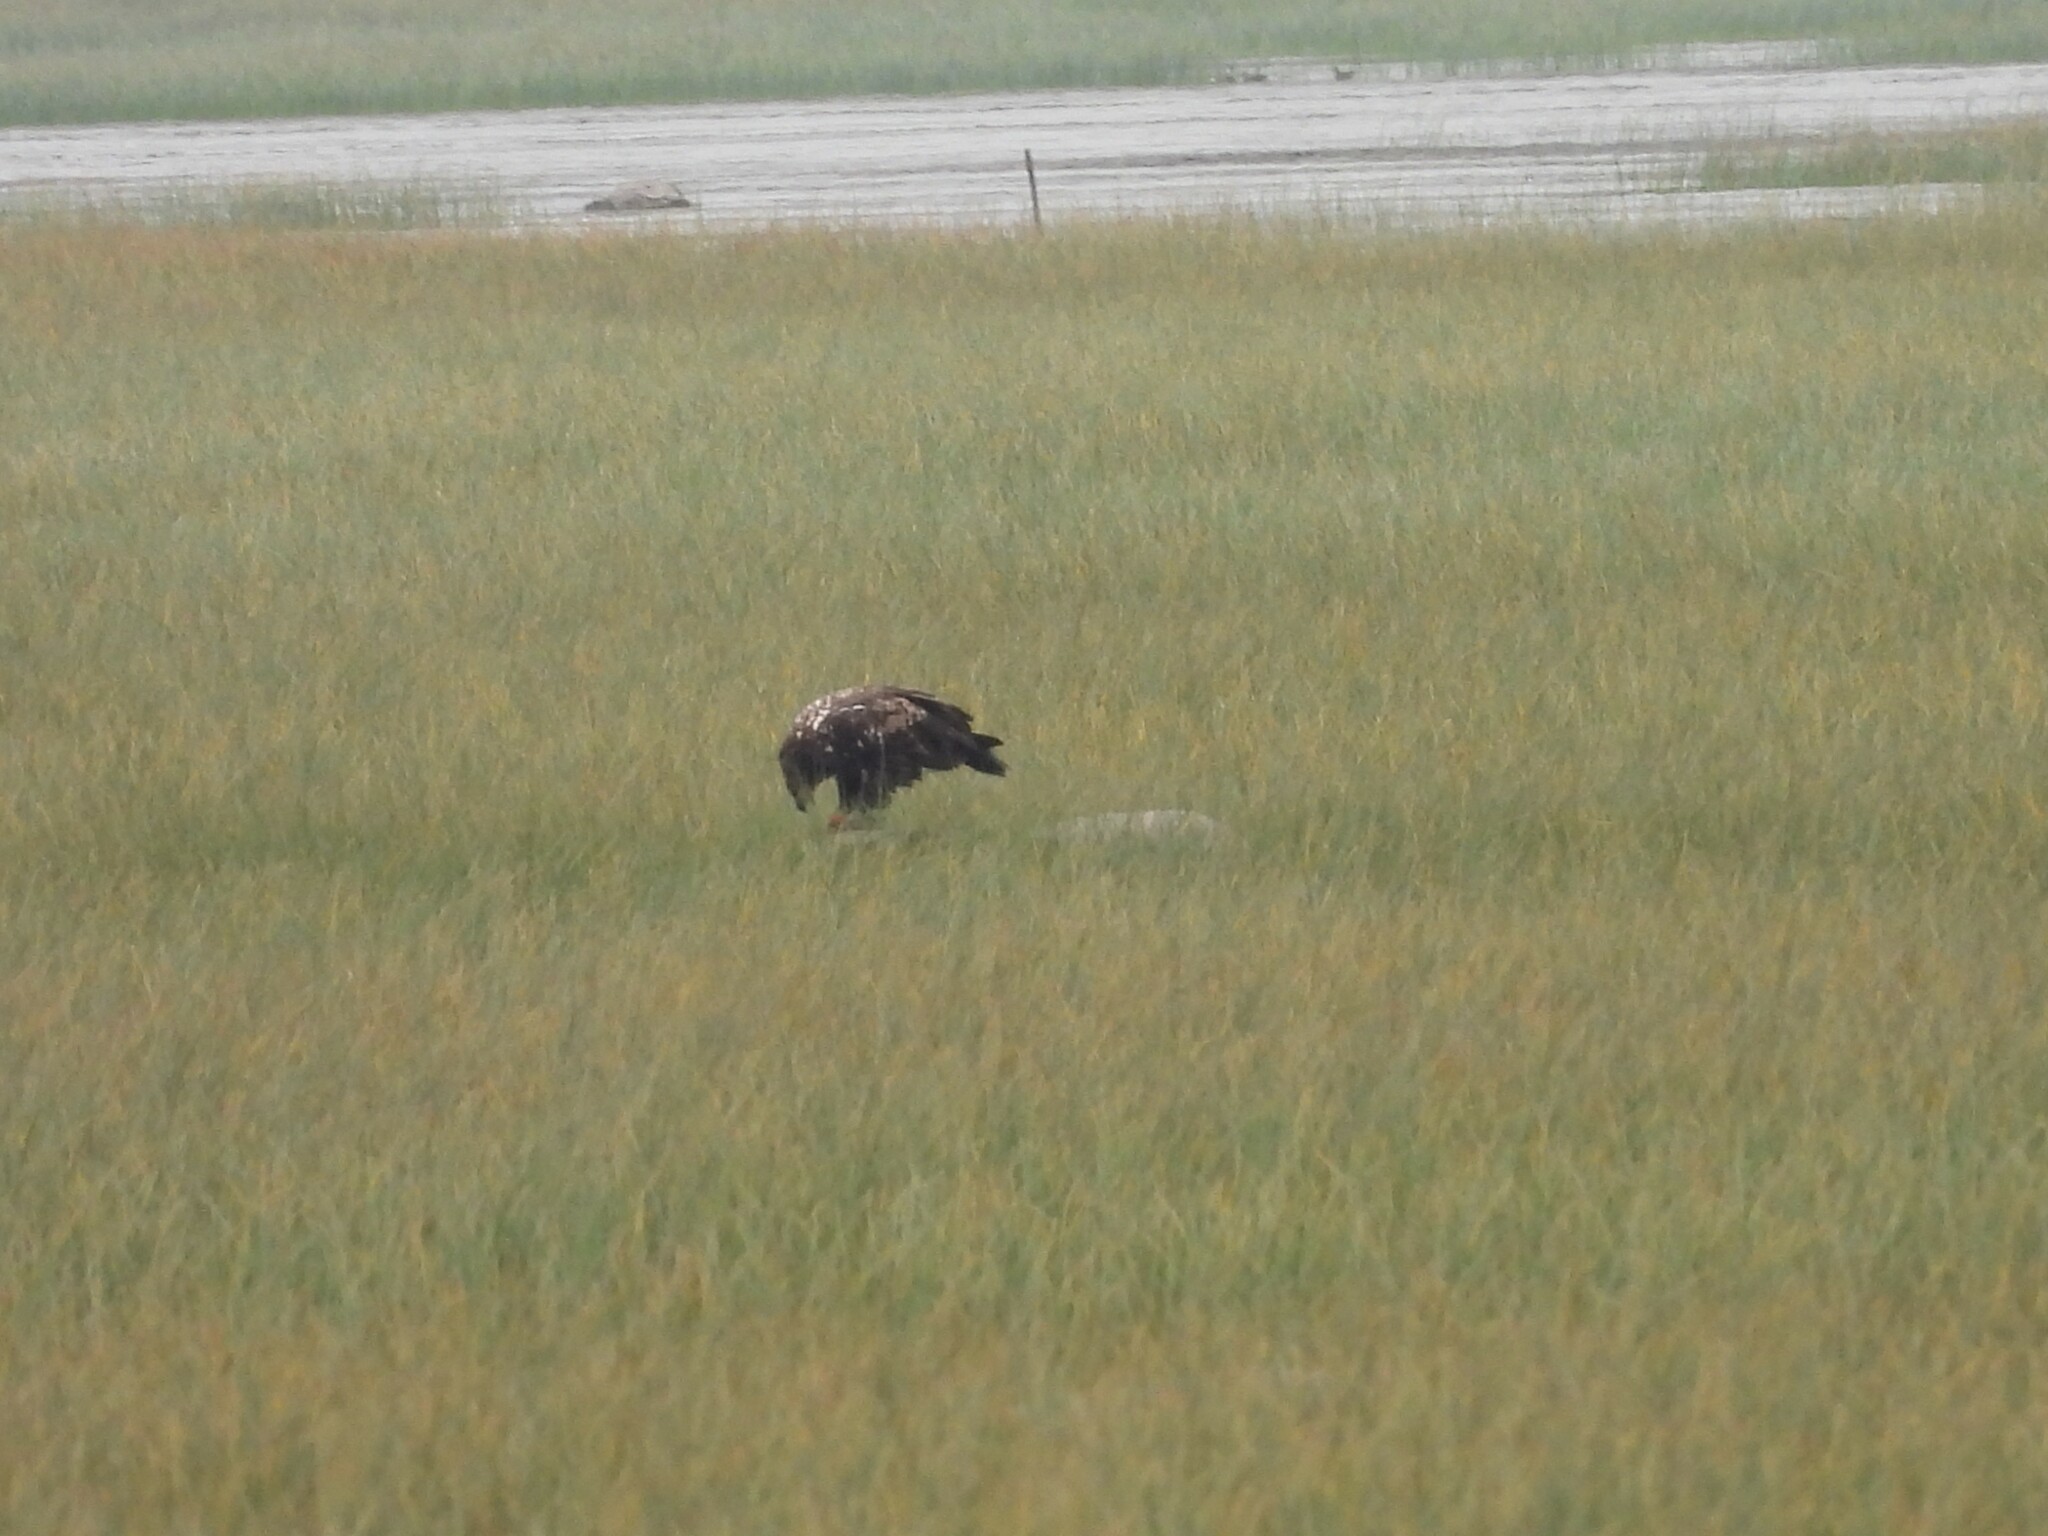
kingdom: Animalia
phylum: Chordata
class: Aves
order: Accipitriformes
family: Accipitridae
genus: Haliaeetus
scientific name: Haliaeetus leucocephalus
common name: Bald eagle
